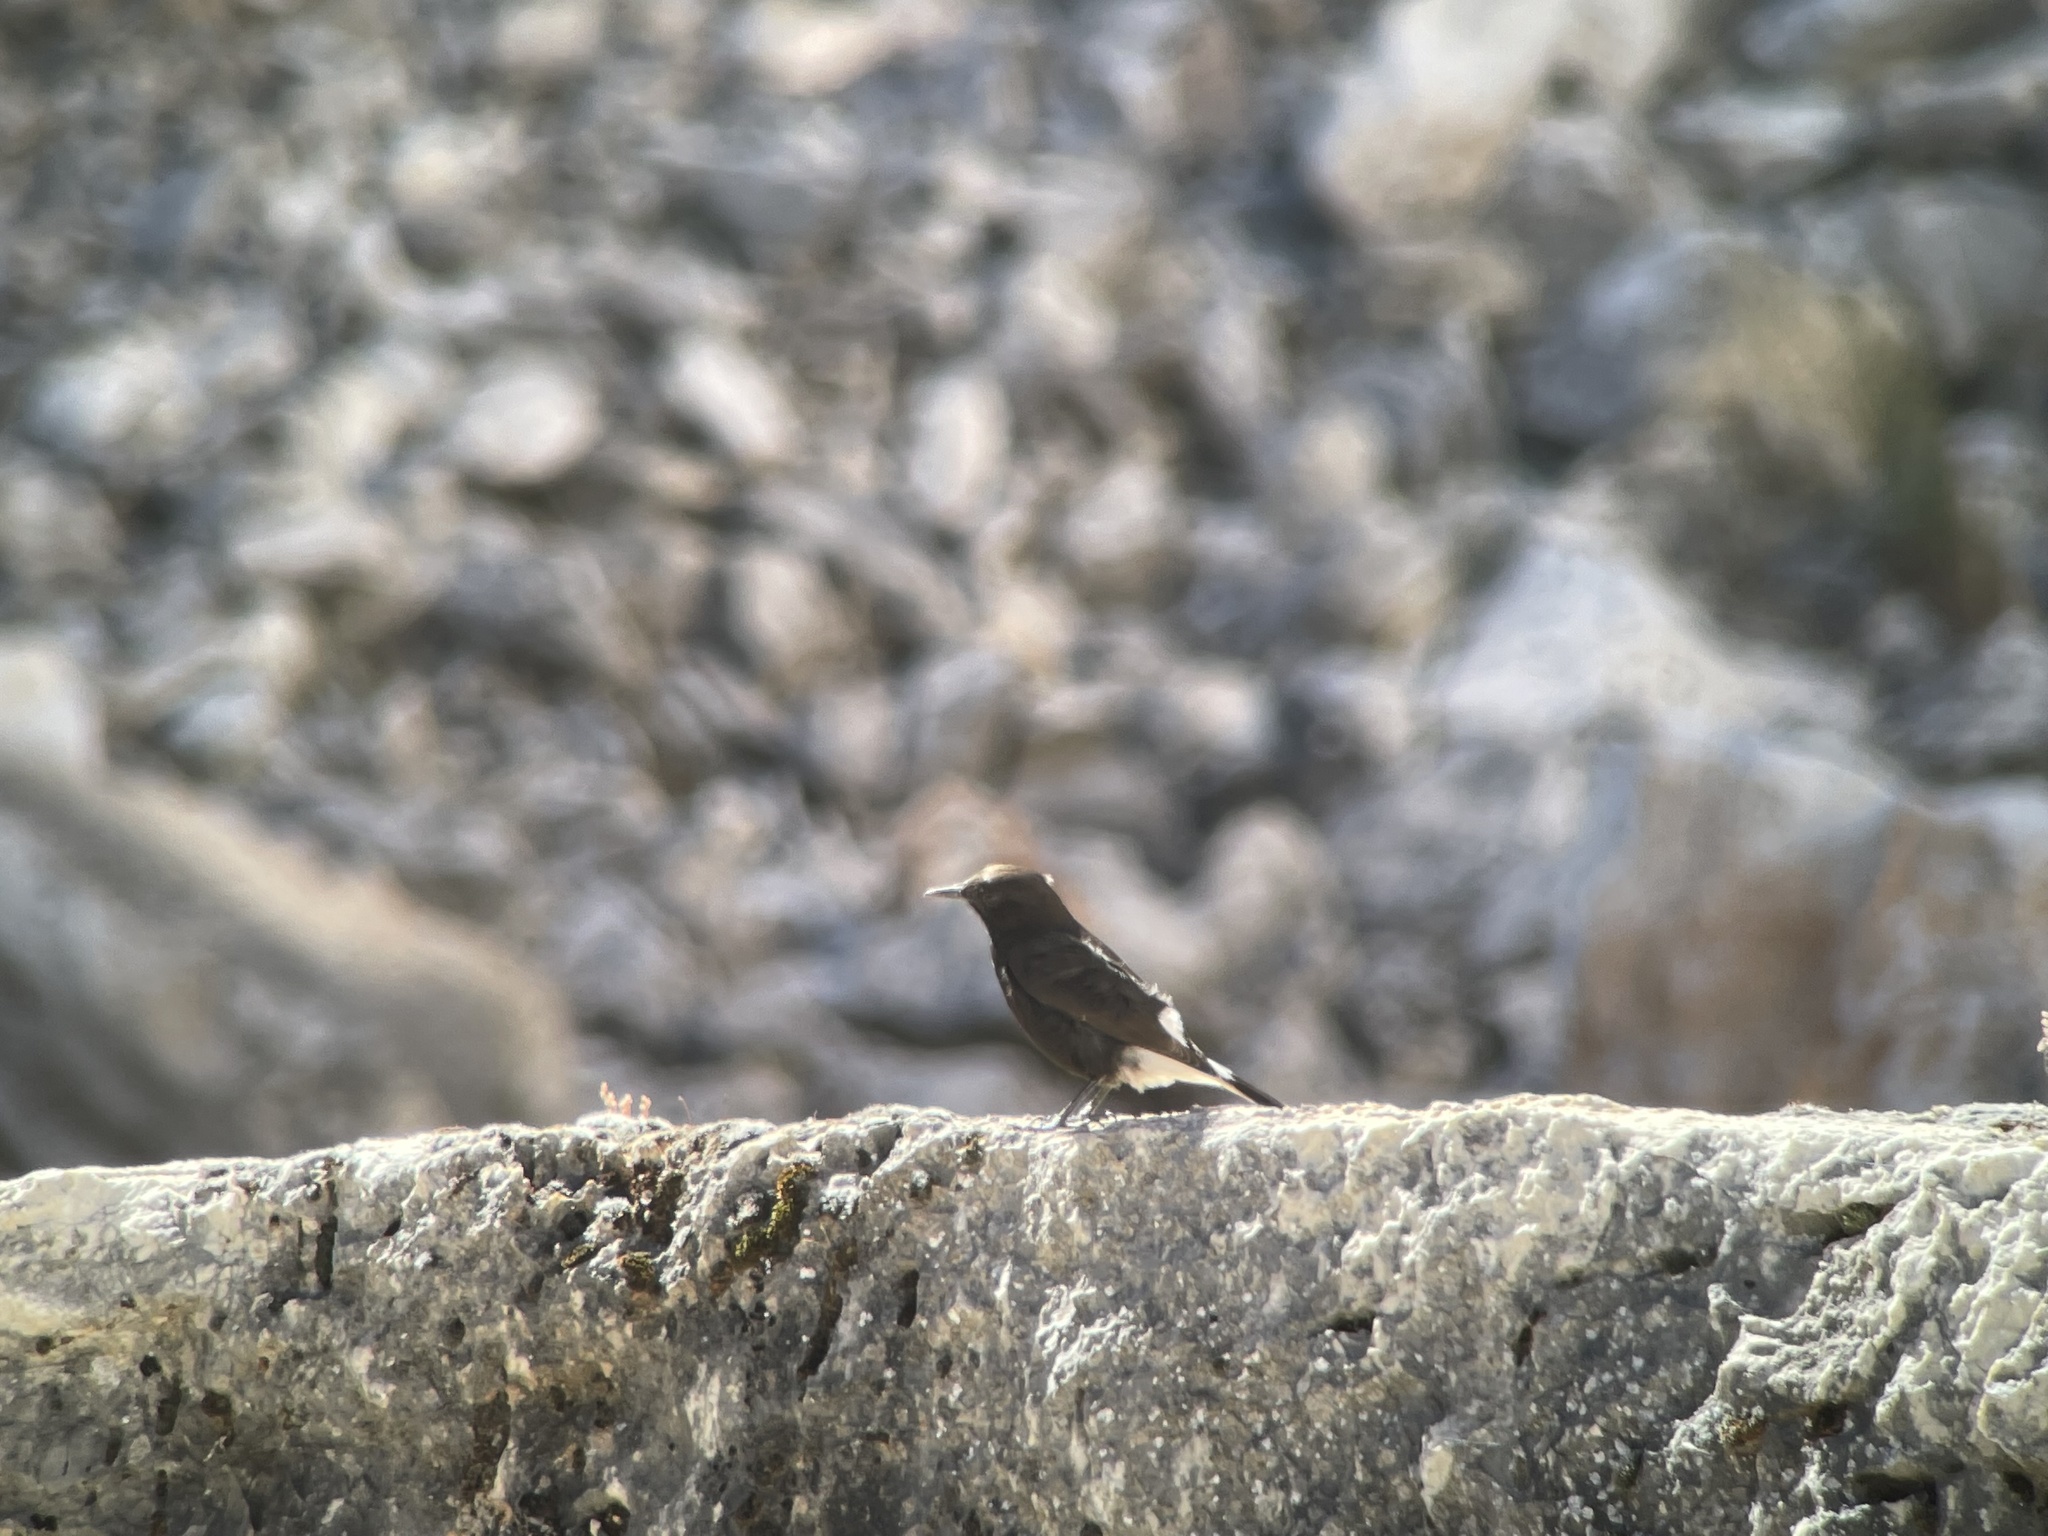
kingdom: Animalia
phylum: Chordata
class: Aves
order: Passeriformes
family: Muscicapidae
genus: Oenanthe
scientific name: Oenanthe leucura
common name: Black wheatear
